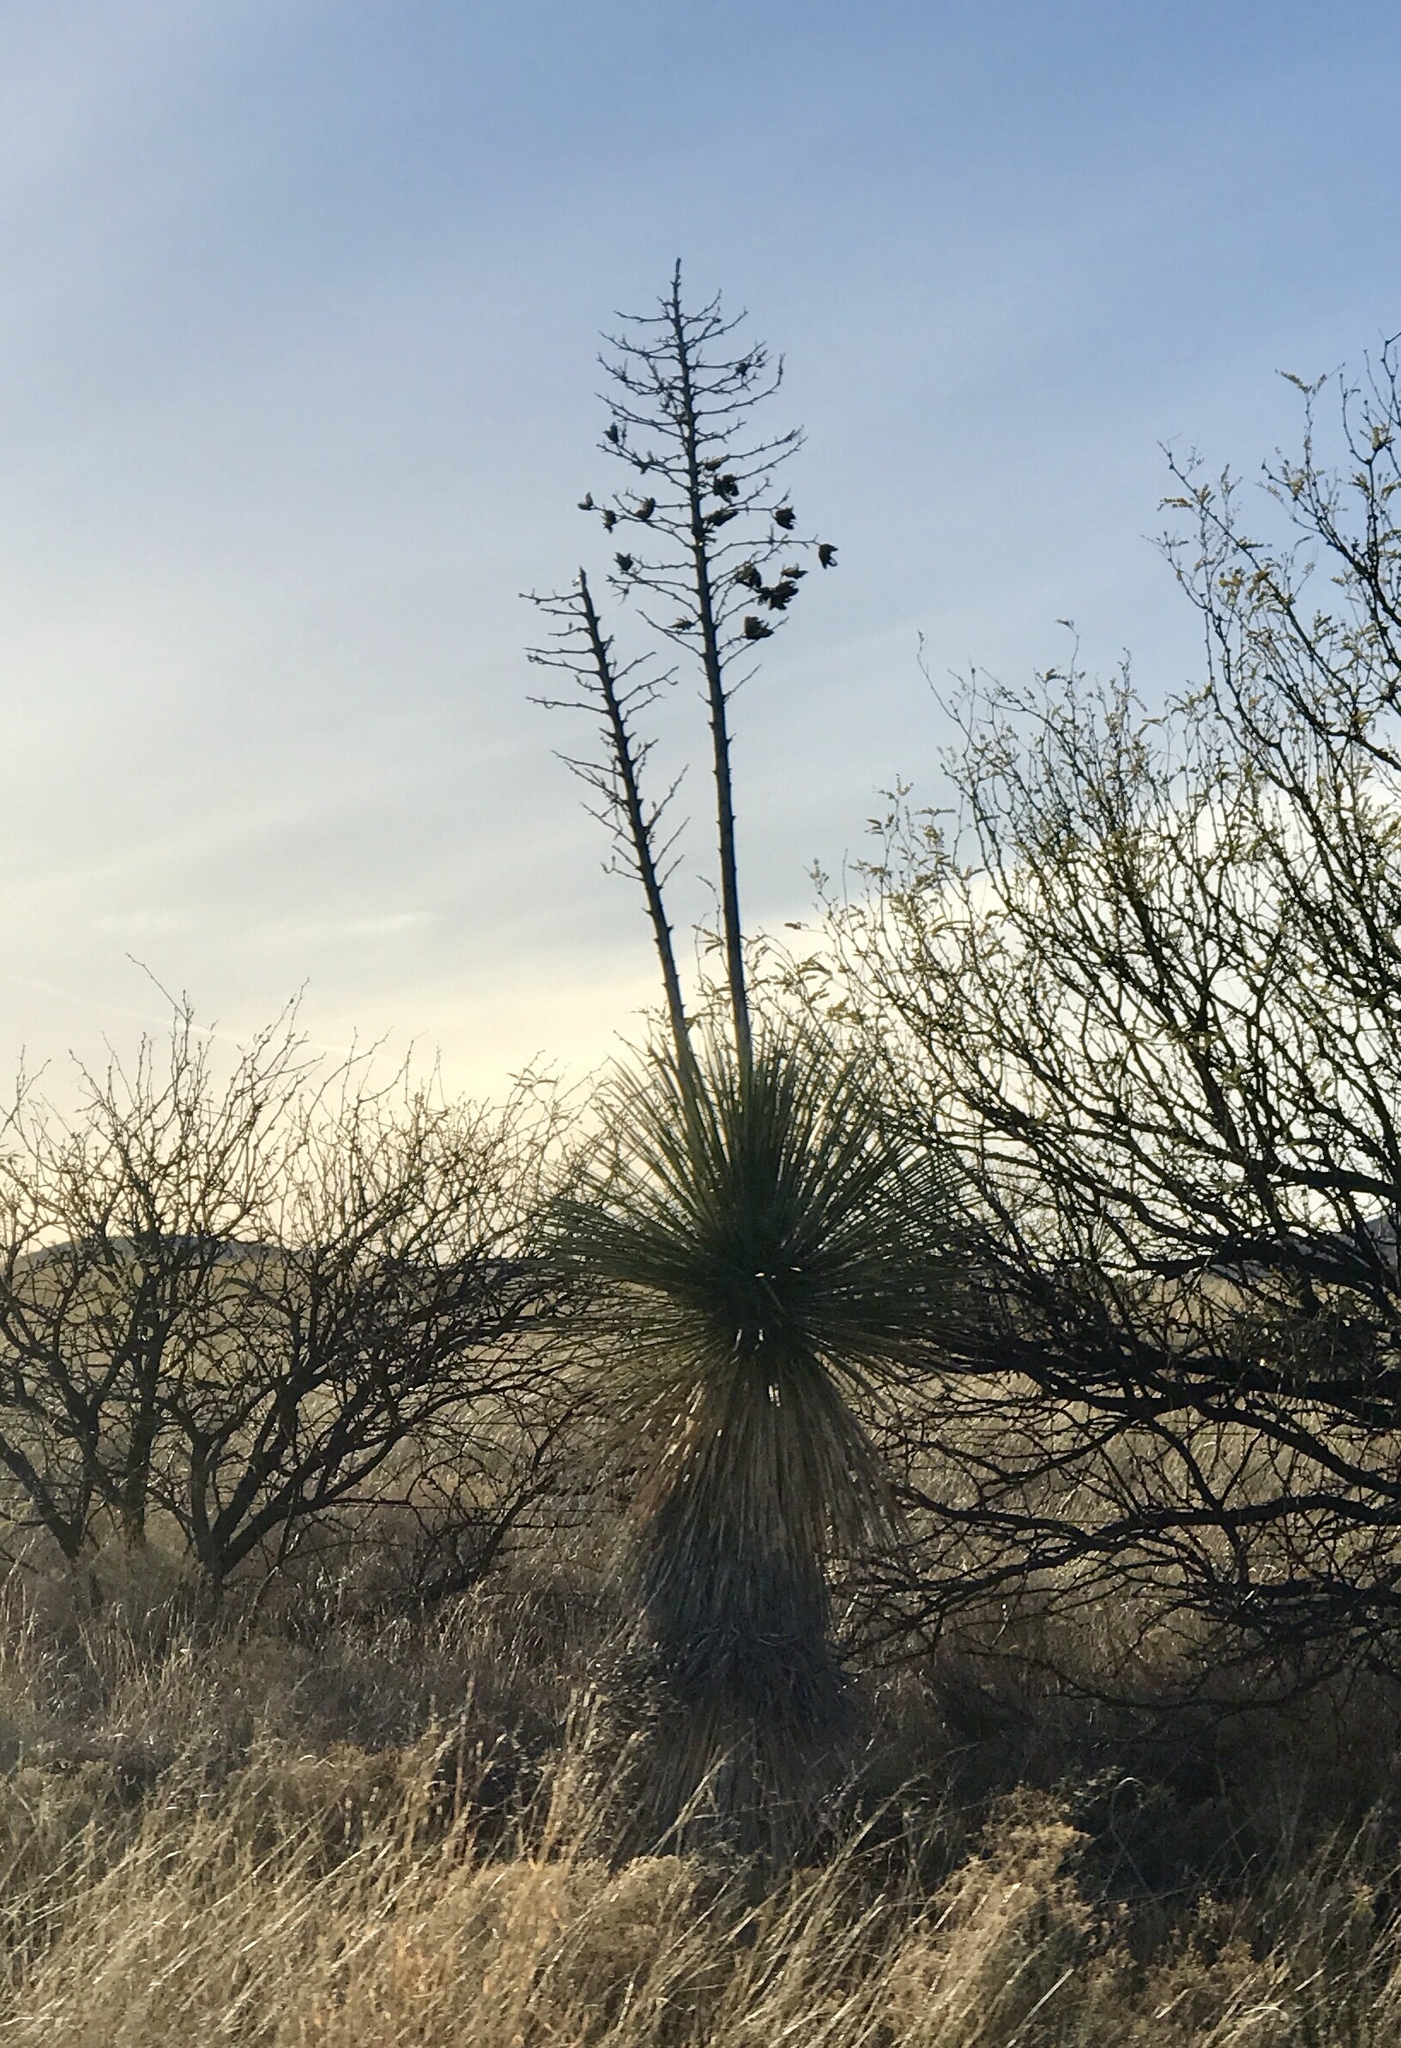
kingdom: Plantae
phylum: Tracheophyta
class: Liliopsida
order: Asparagales
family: Asparagaceae
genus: Yucca
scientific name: Yucca elata
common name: Palmella
